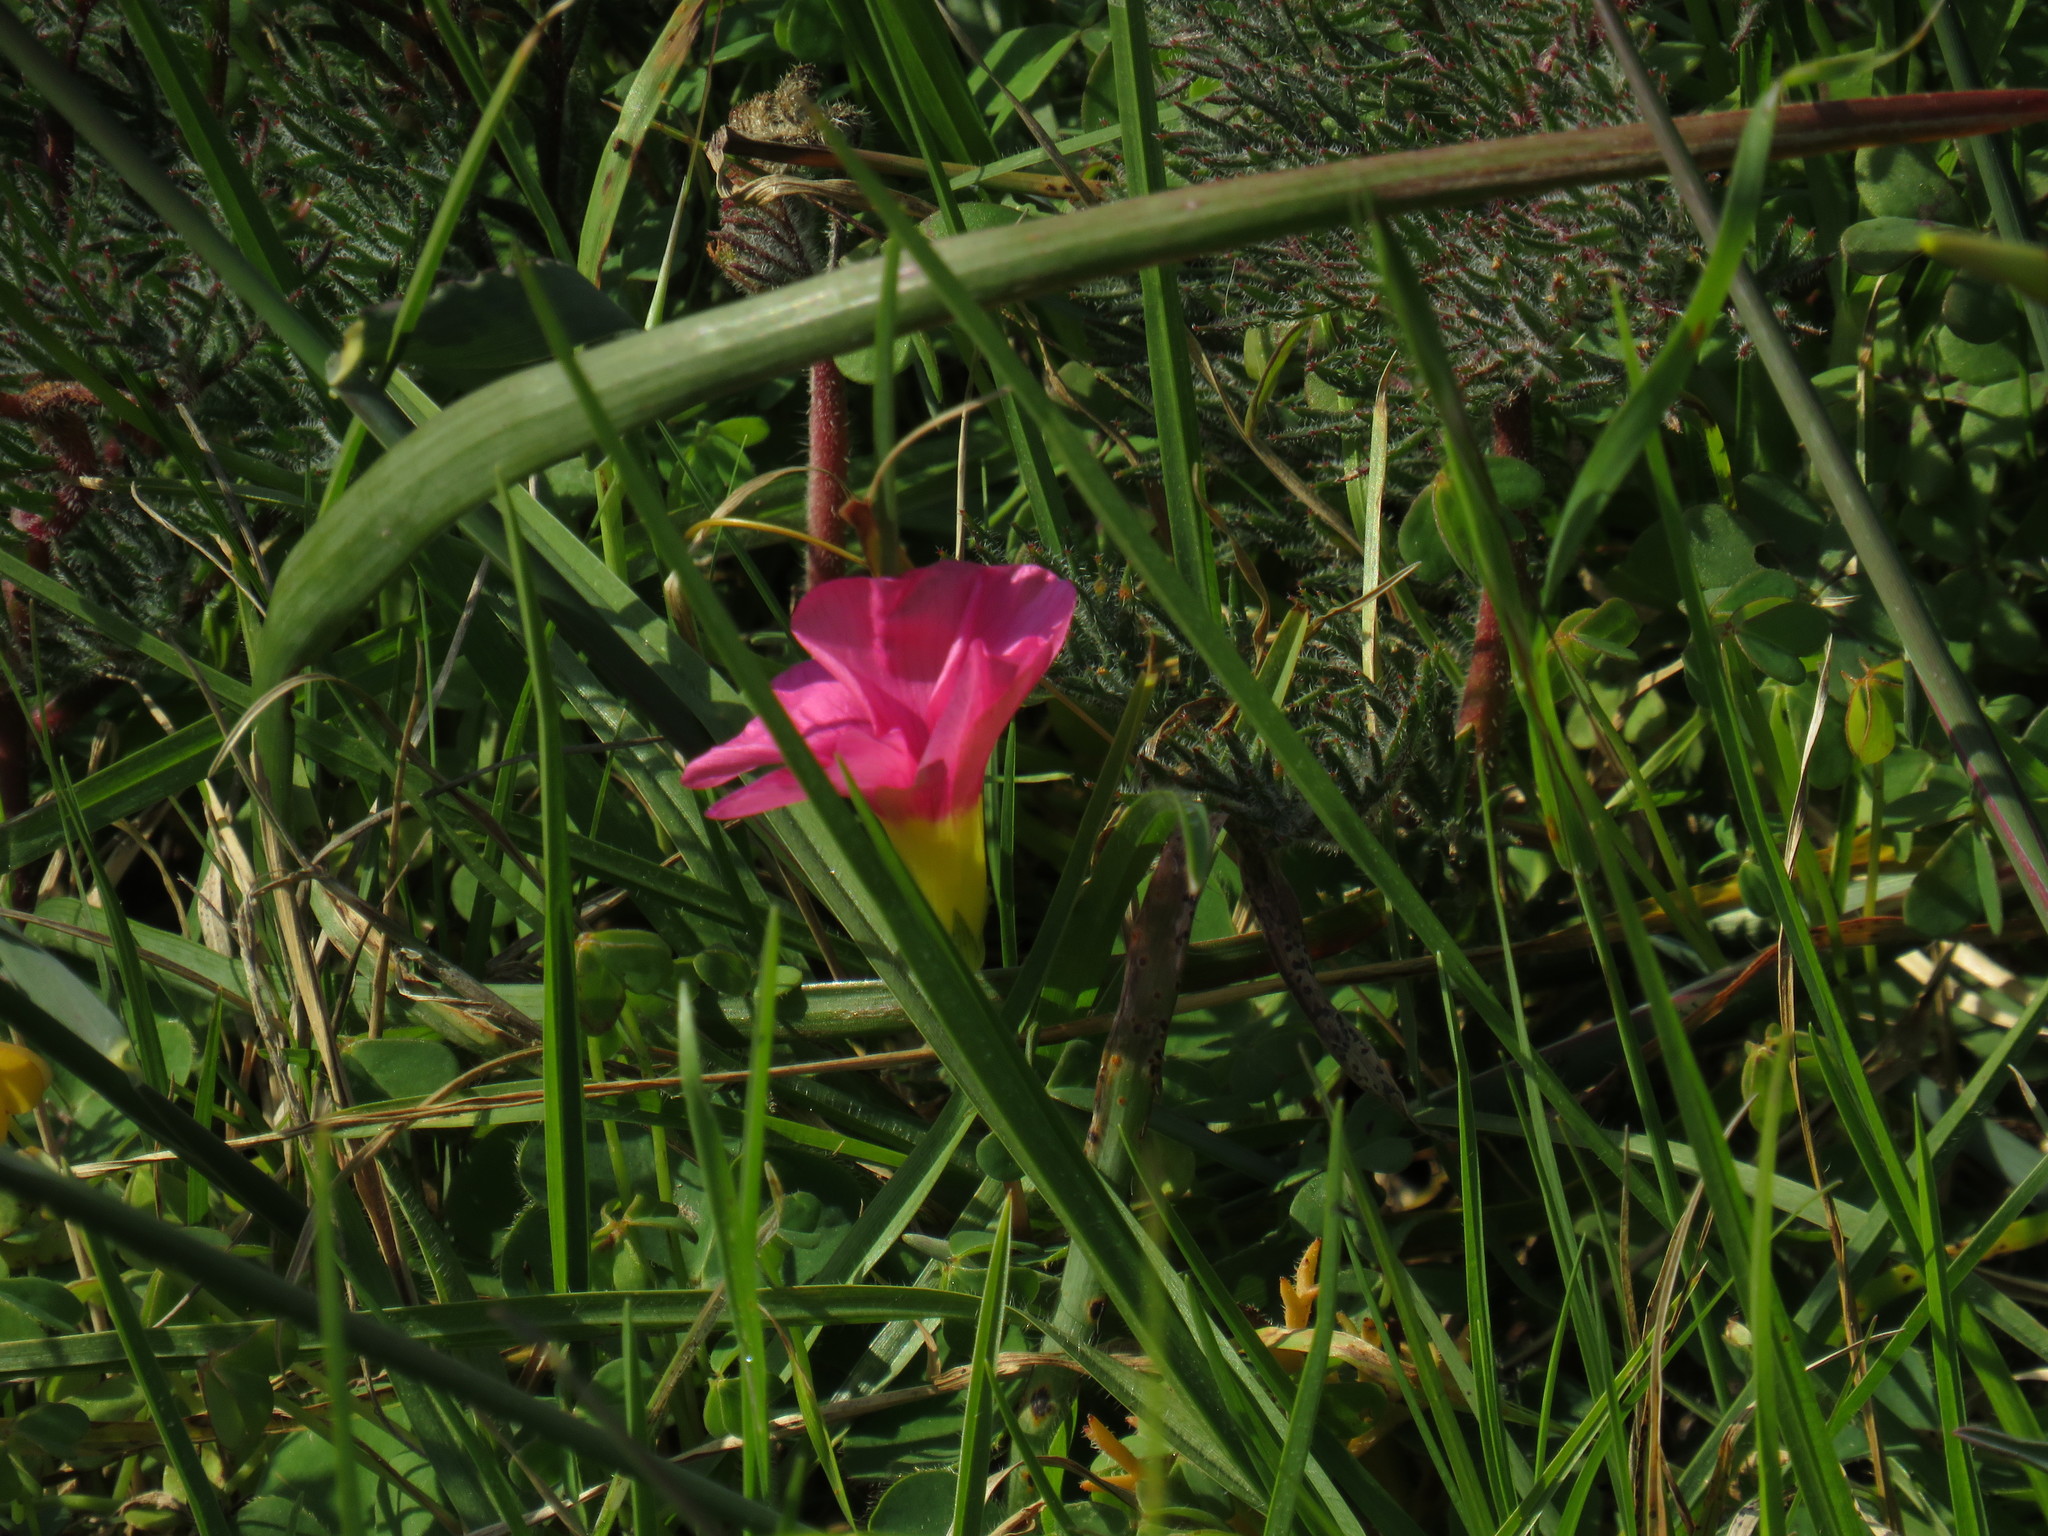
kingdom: Plantae
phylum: Tracheophyta
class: Magnoliopsida
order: Oxalidales
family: Oxalidaceae
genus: Oxalis
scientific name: Oxalis purpurea
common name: Purple woodsorrel
